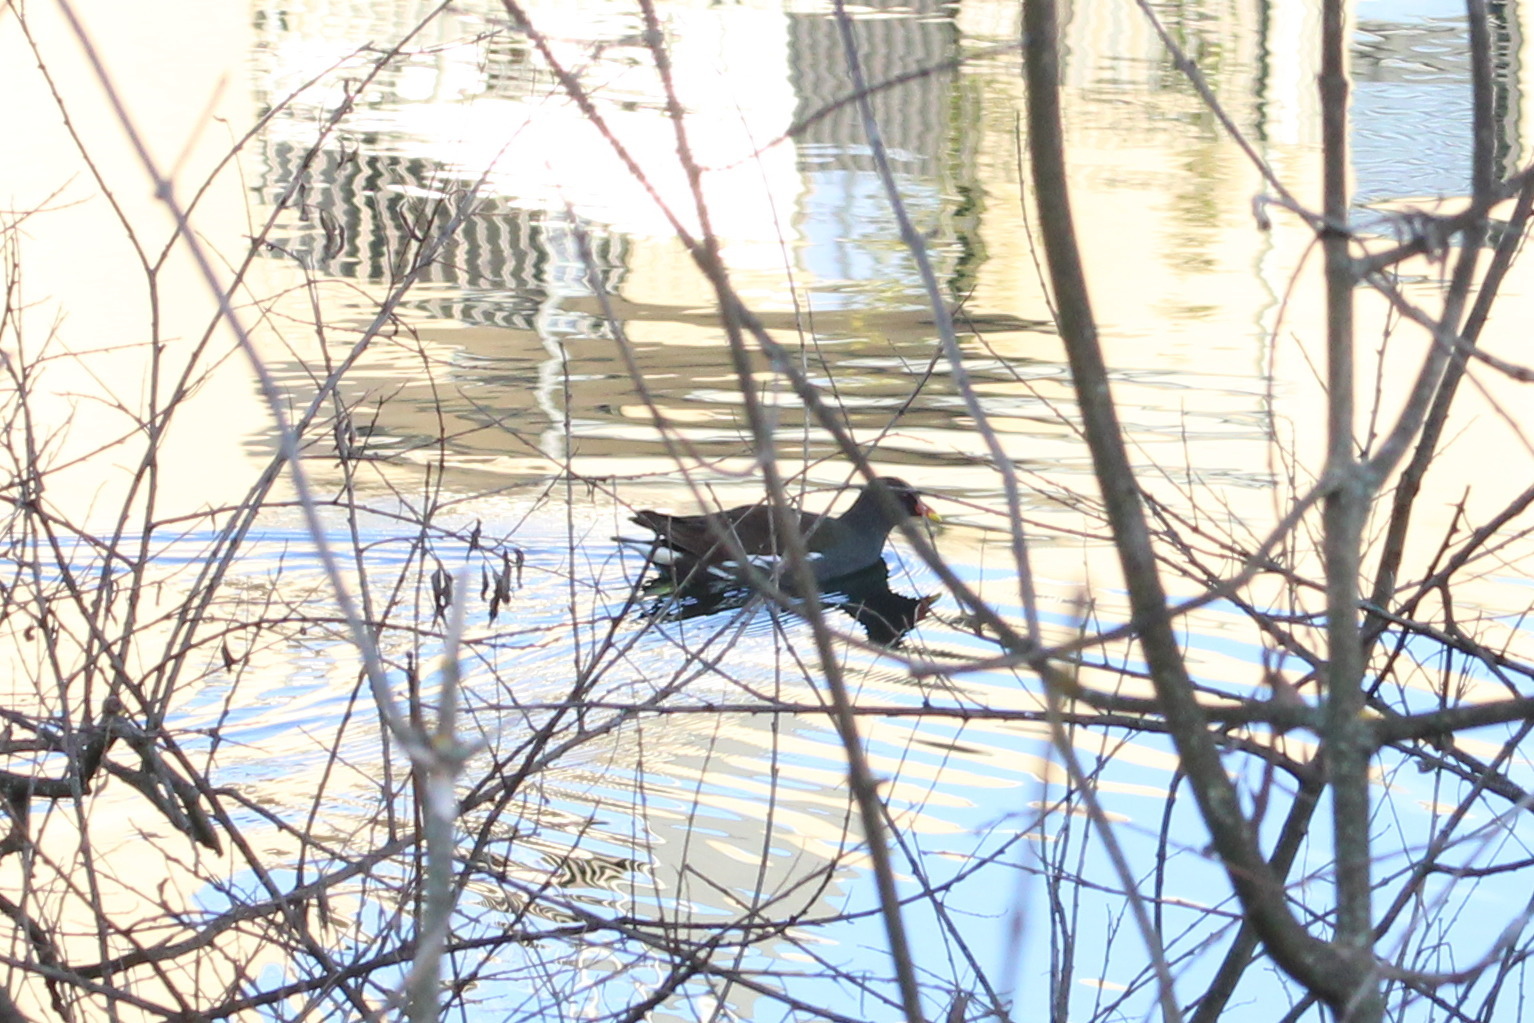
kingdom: Animalia
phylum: Chordata
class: Aves
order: Gruiformes
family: Rallidae
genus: Gallinula
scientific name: Gallinula chloropus
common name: Common moorhen
